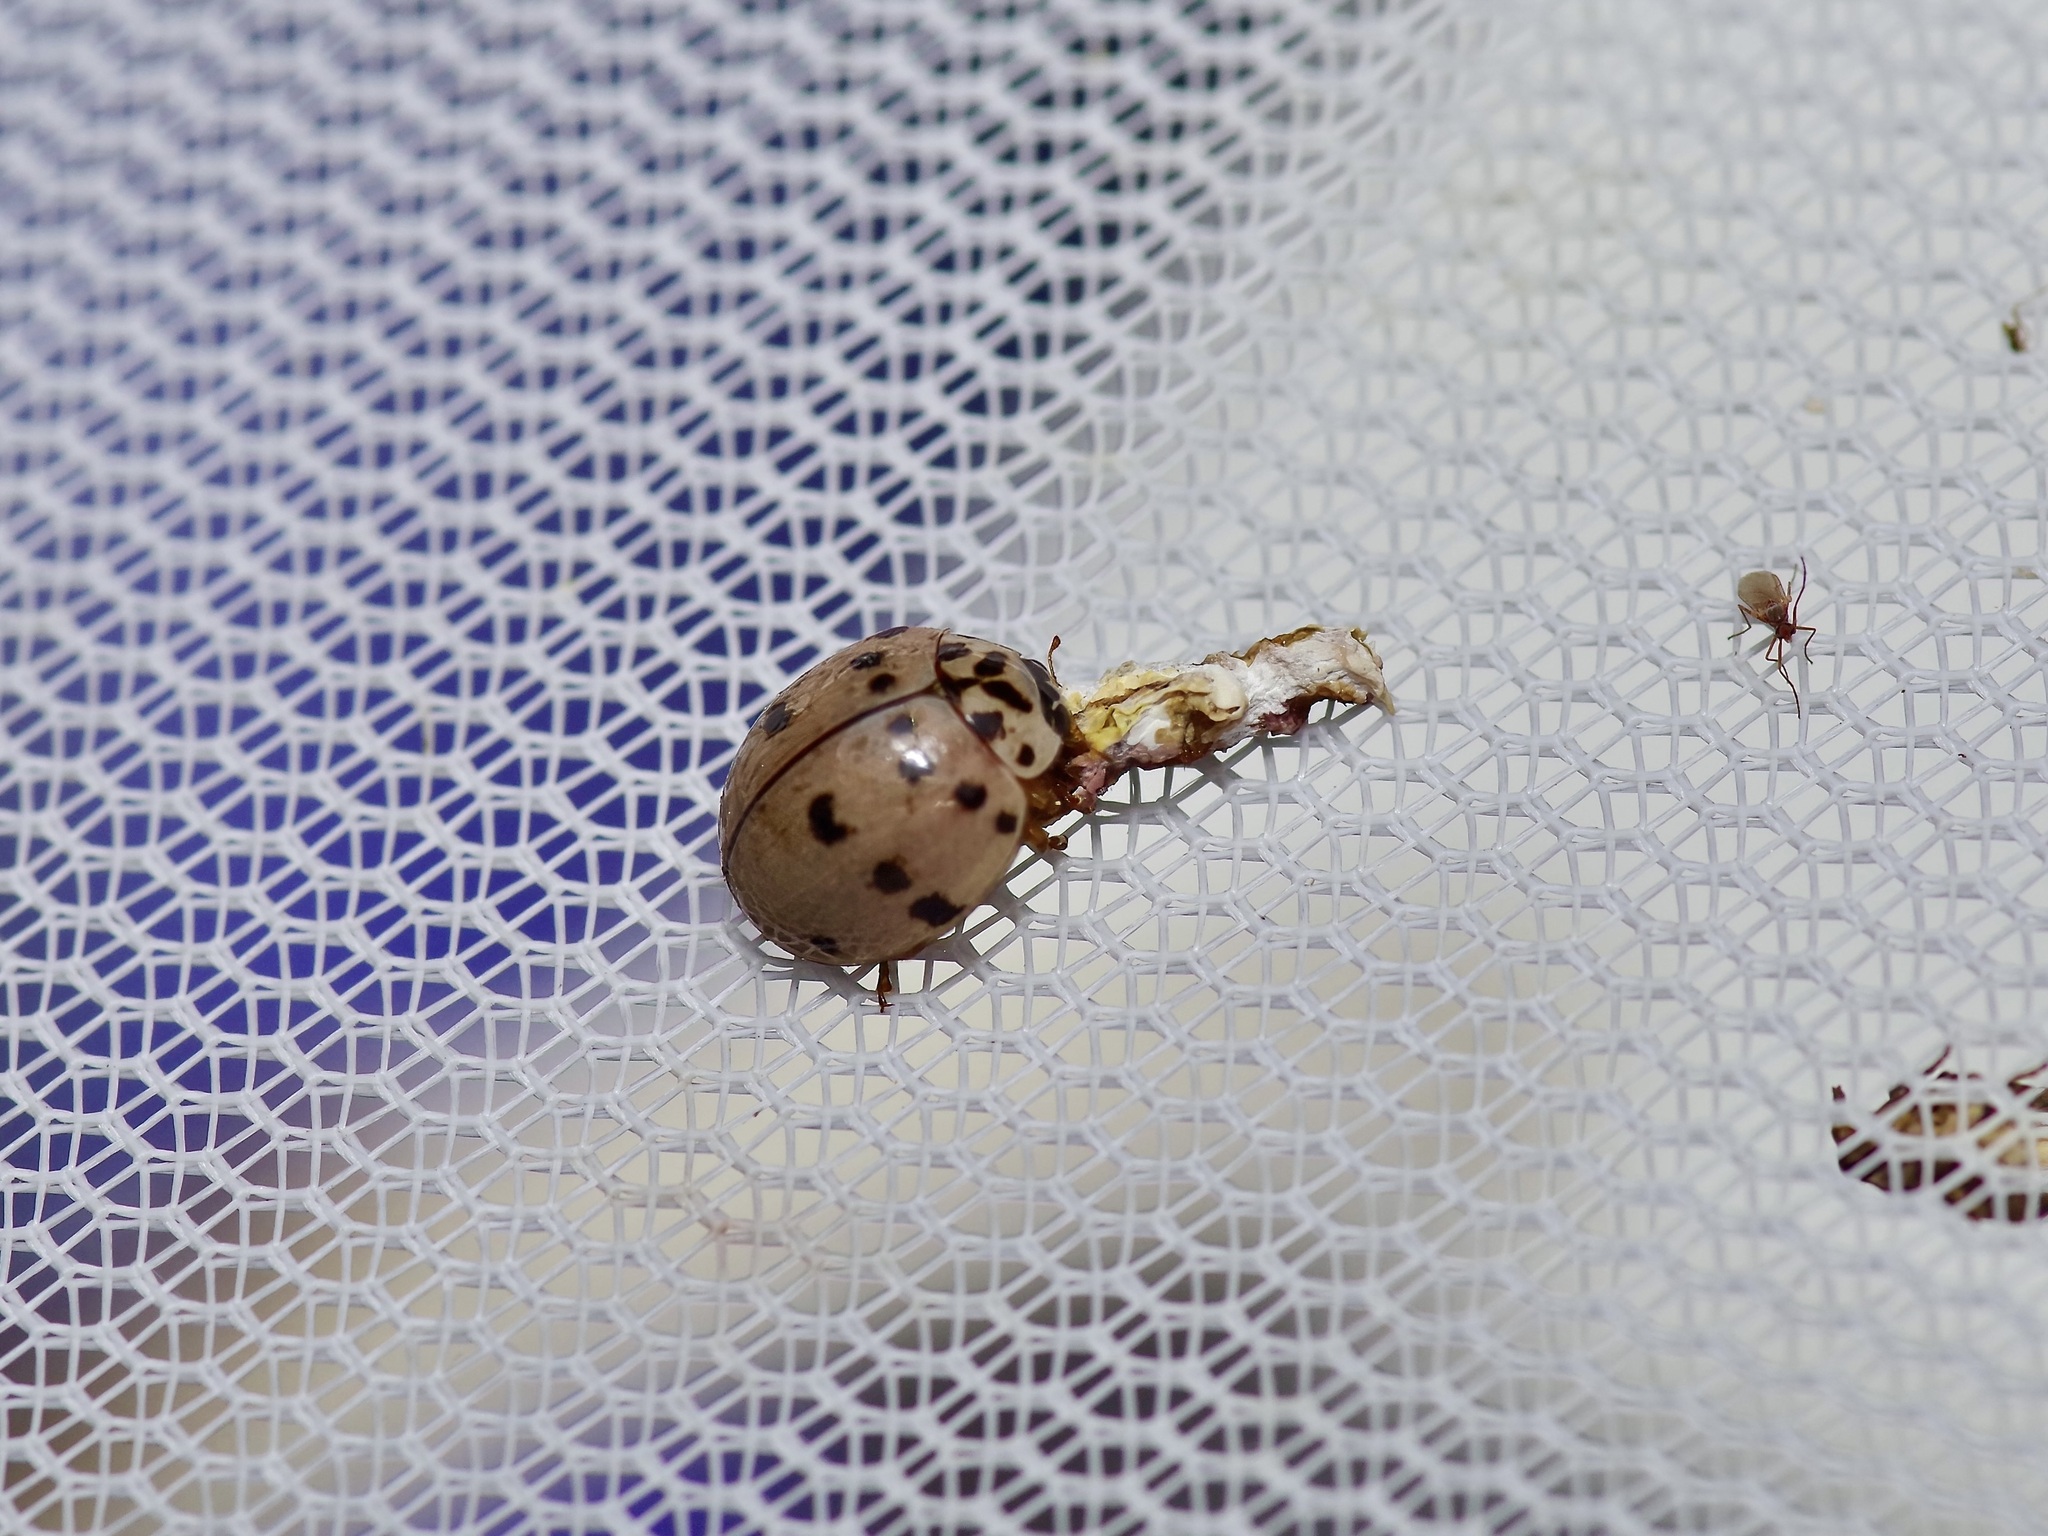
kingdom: Animalia
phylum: Arthropoda
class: Insecta
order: Coleoptera
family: Coccinellidae
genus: Olla
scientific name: Olla v-nigrum
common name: Ashy gray lady beetle
